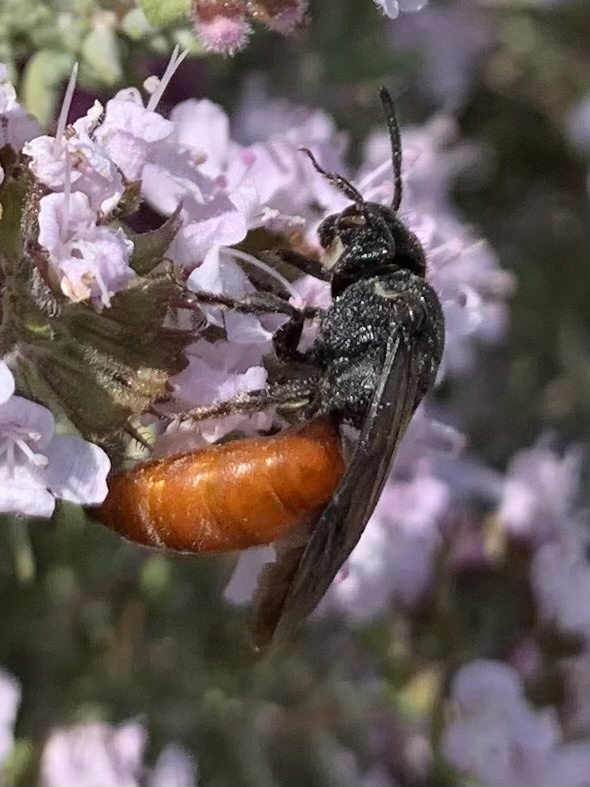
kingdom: Animalia
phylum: Arthropoda
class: Insecta
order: Hymenoptera
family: Halictidae
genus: Sphecodes
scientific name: Sphecodes albilabris
